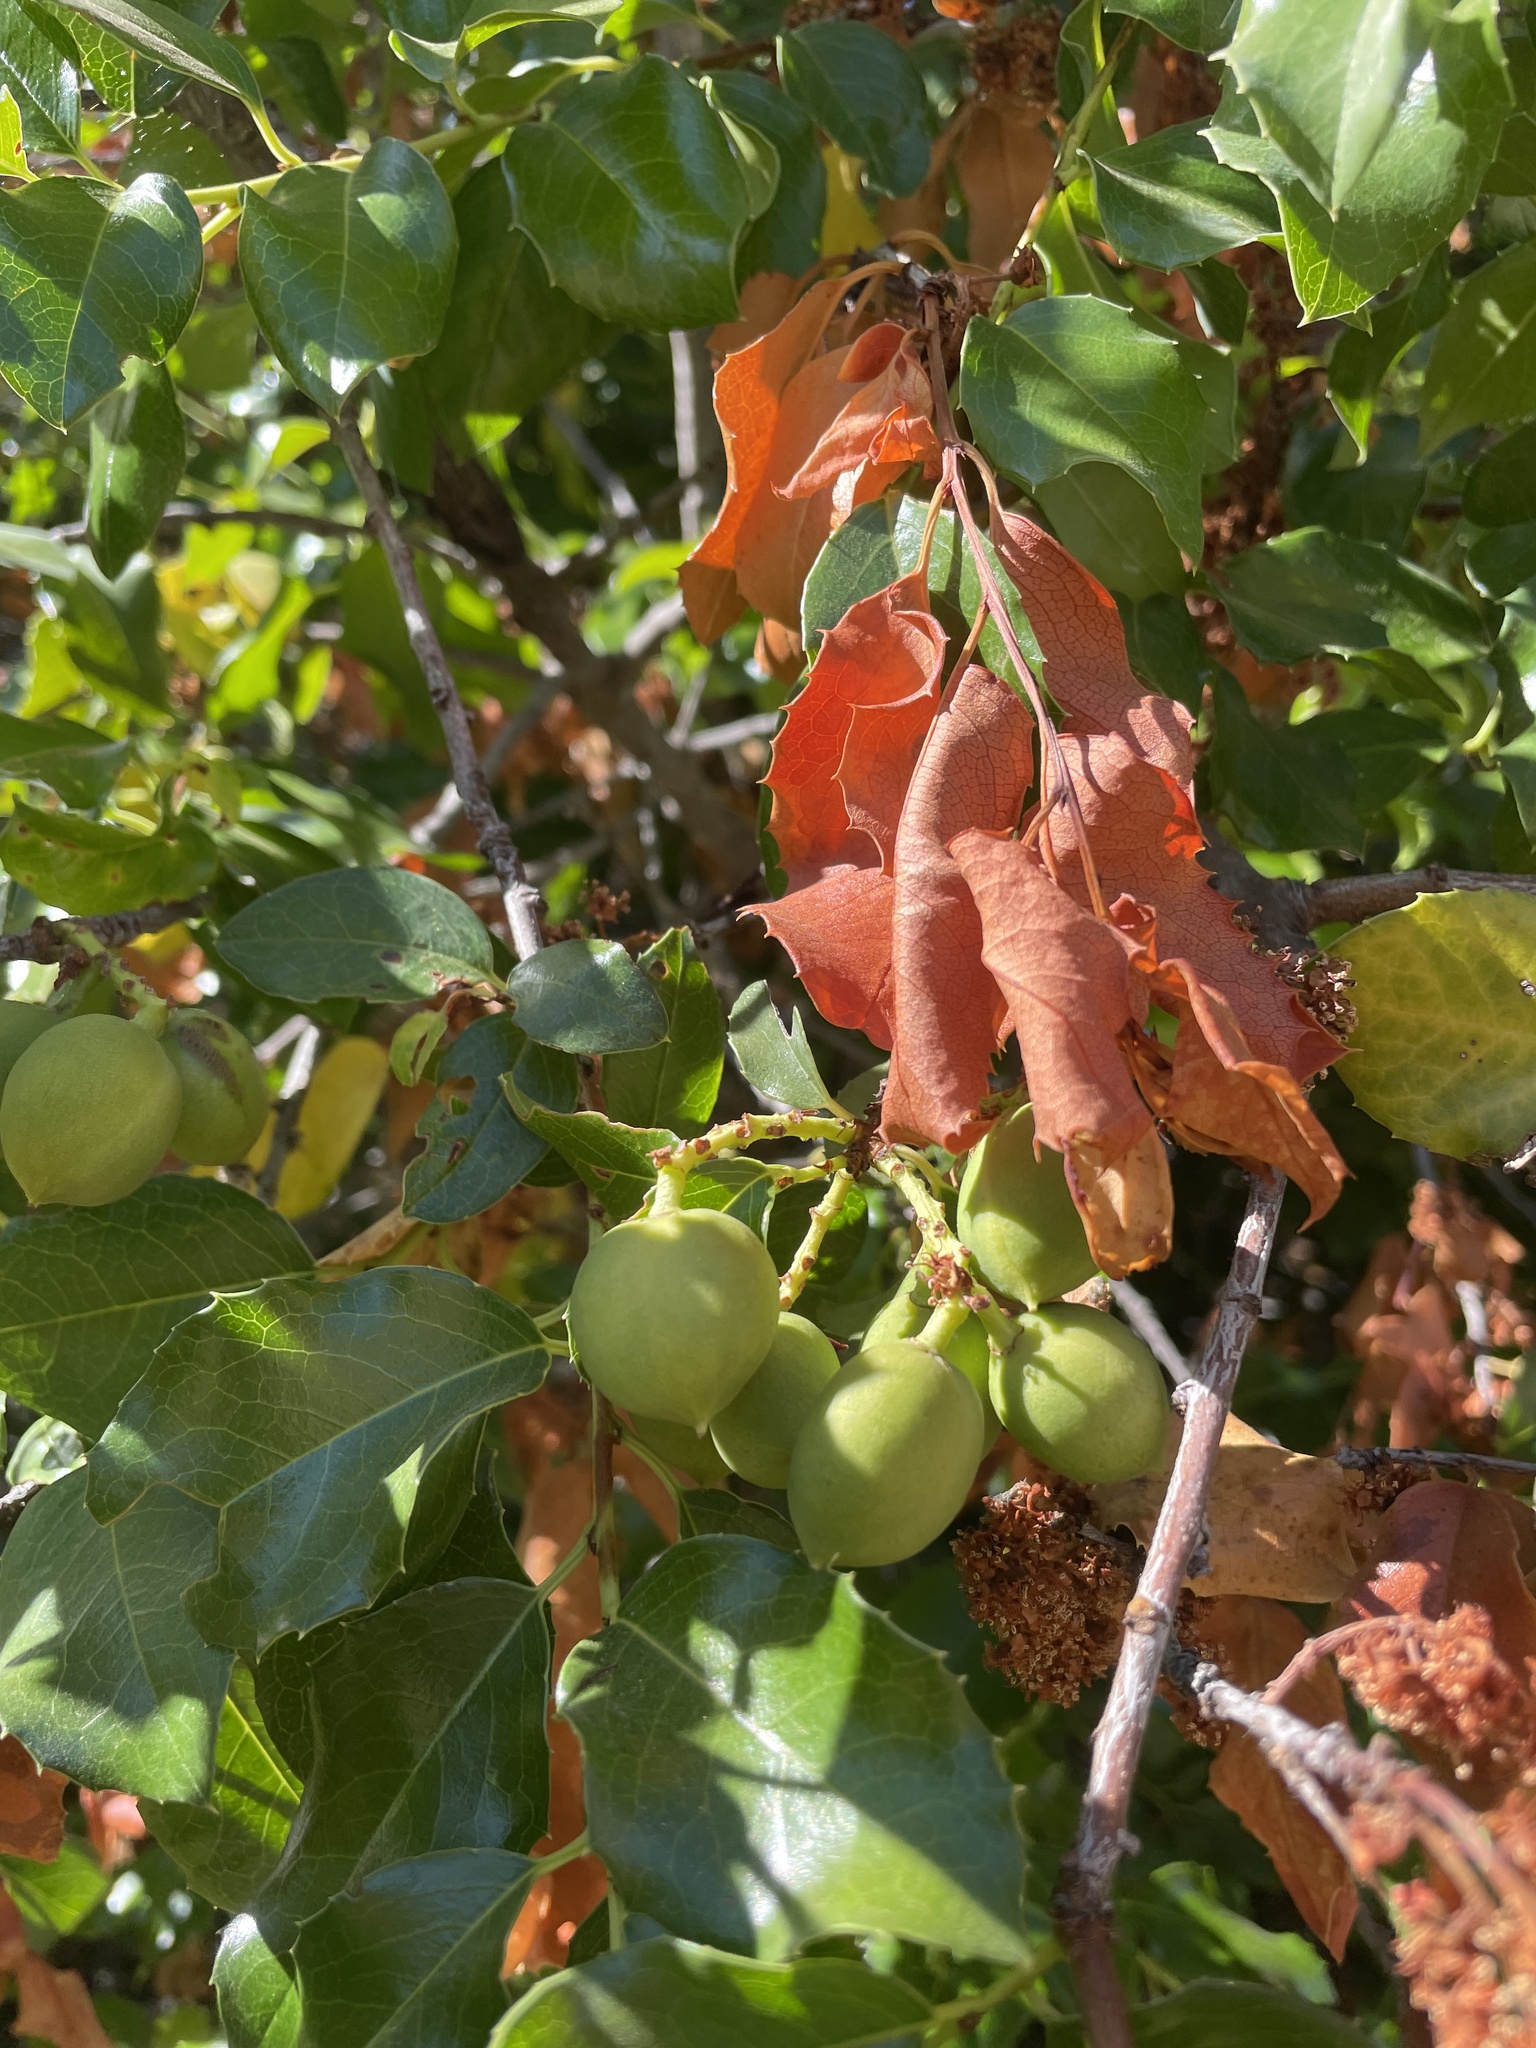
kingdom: Plantae
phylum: Tracheophyta
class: Magnoliopsida
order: Rosales
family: Rosaceae
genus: Prunus
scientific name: Prunus ilicifolia
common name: Hollyleaf cherry
